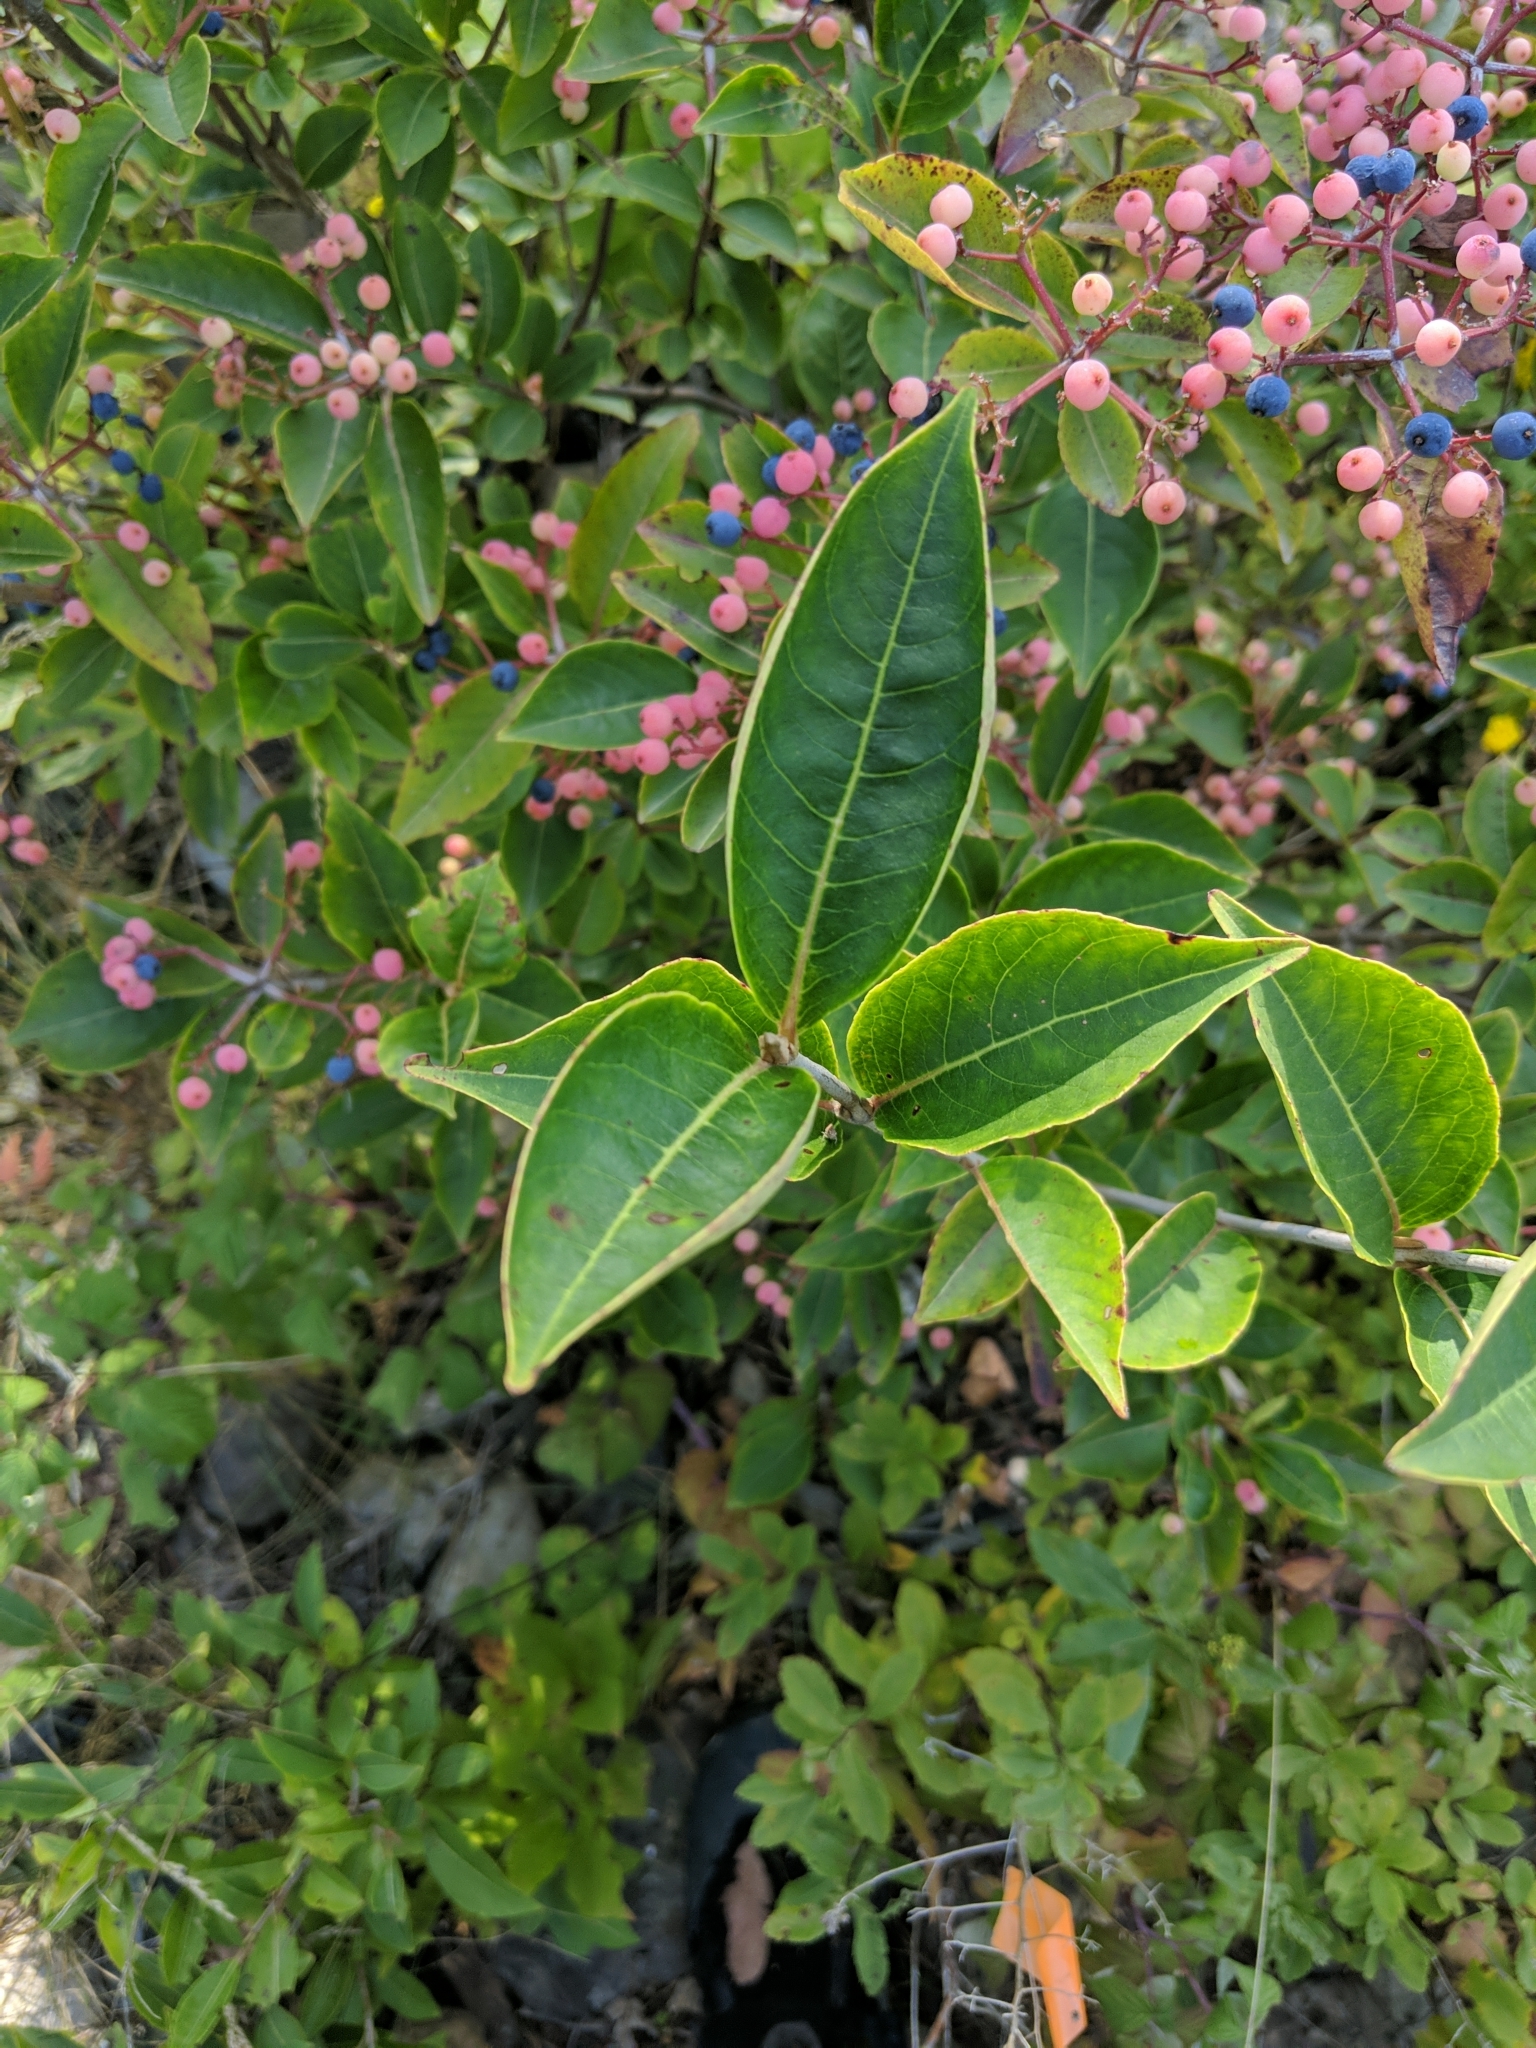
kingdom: Plantae
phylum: Tracheophyta
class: Magnoliopsida
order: Dipsacales
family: Viburnaceae
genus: Viburnum
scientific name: Viburnum cassinoides
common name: Swamp haw
